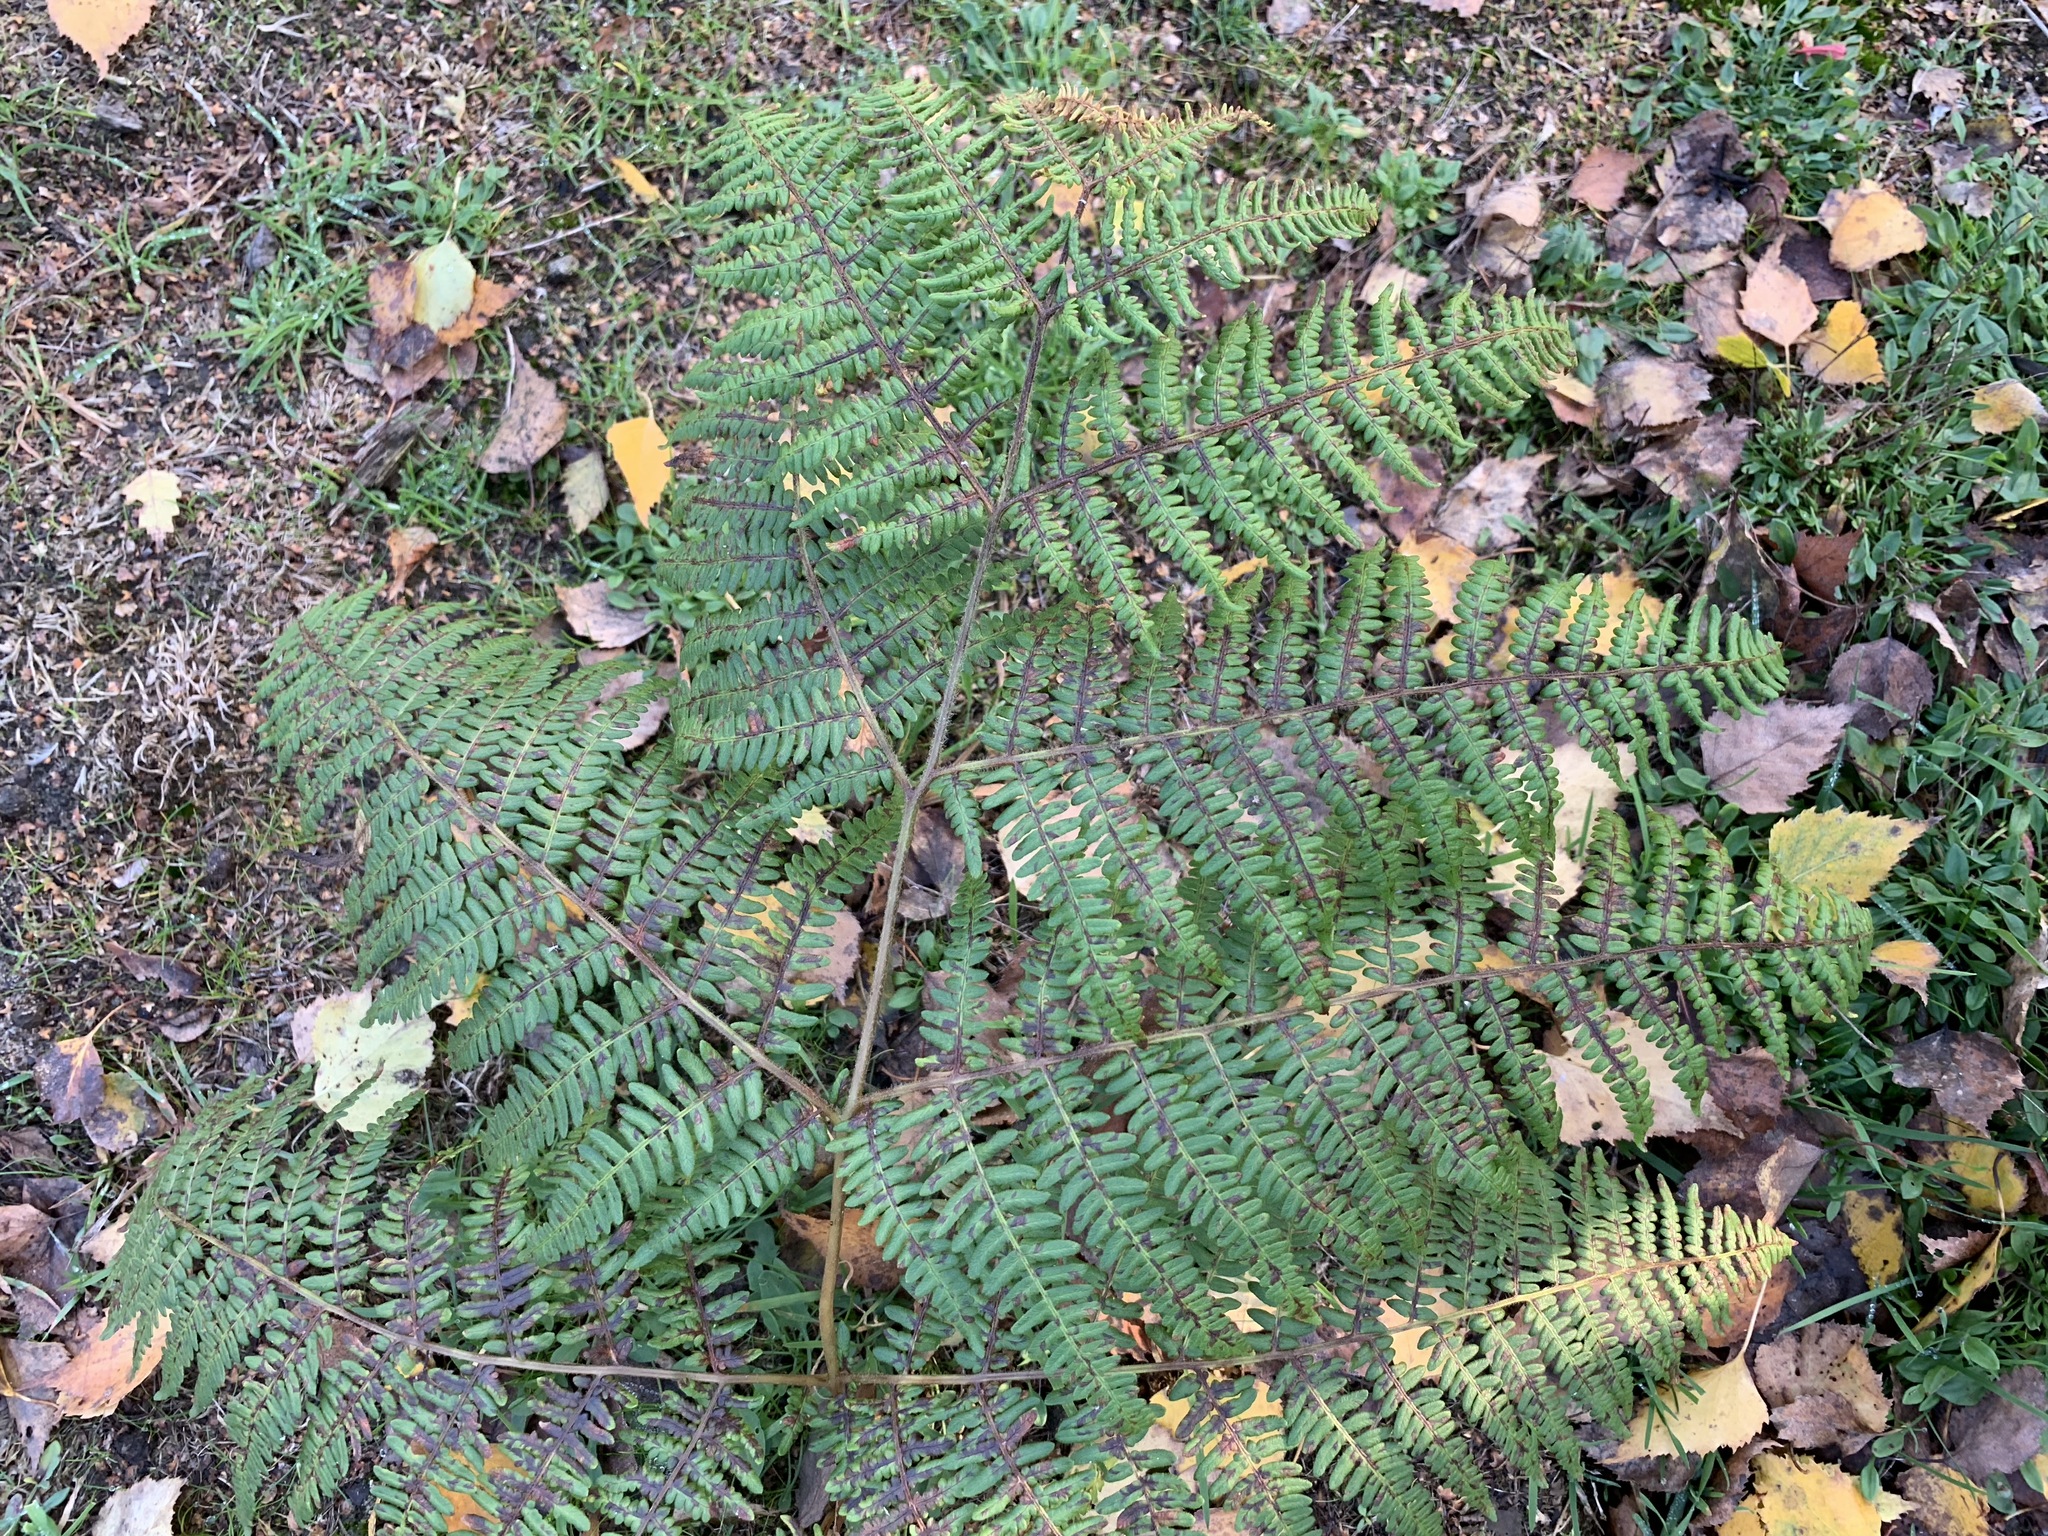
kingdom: Plantae
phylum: Tracheophyta
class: Polypodiopsida
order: Polypodiales
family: Dennstaedtiaceae
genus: Pteridium
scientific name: Pteridium aquilinum
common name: Bracken
